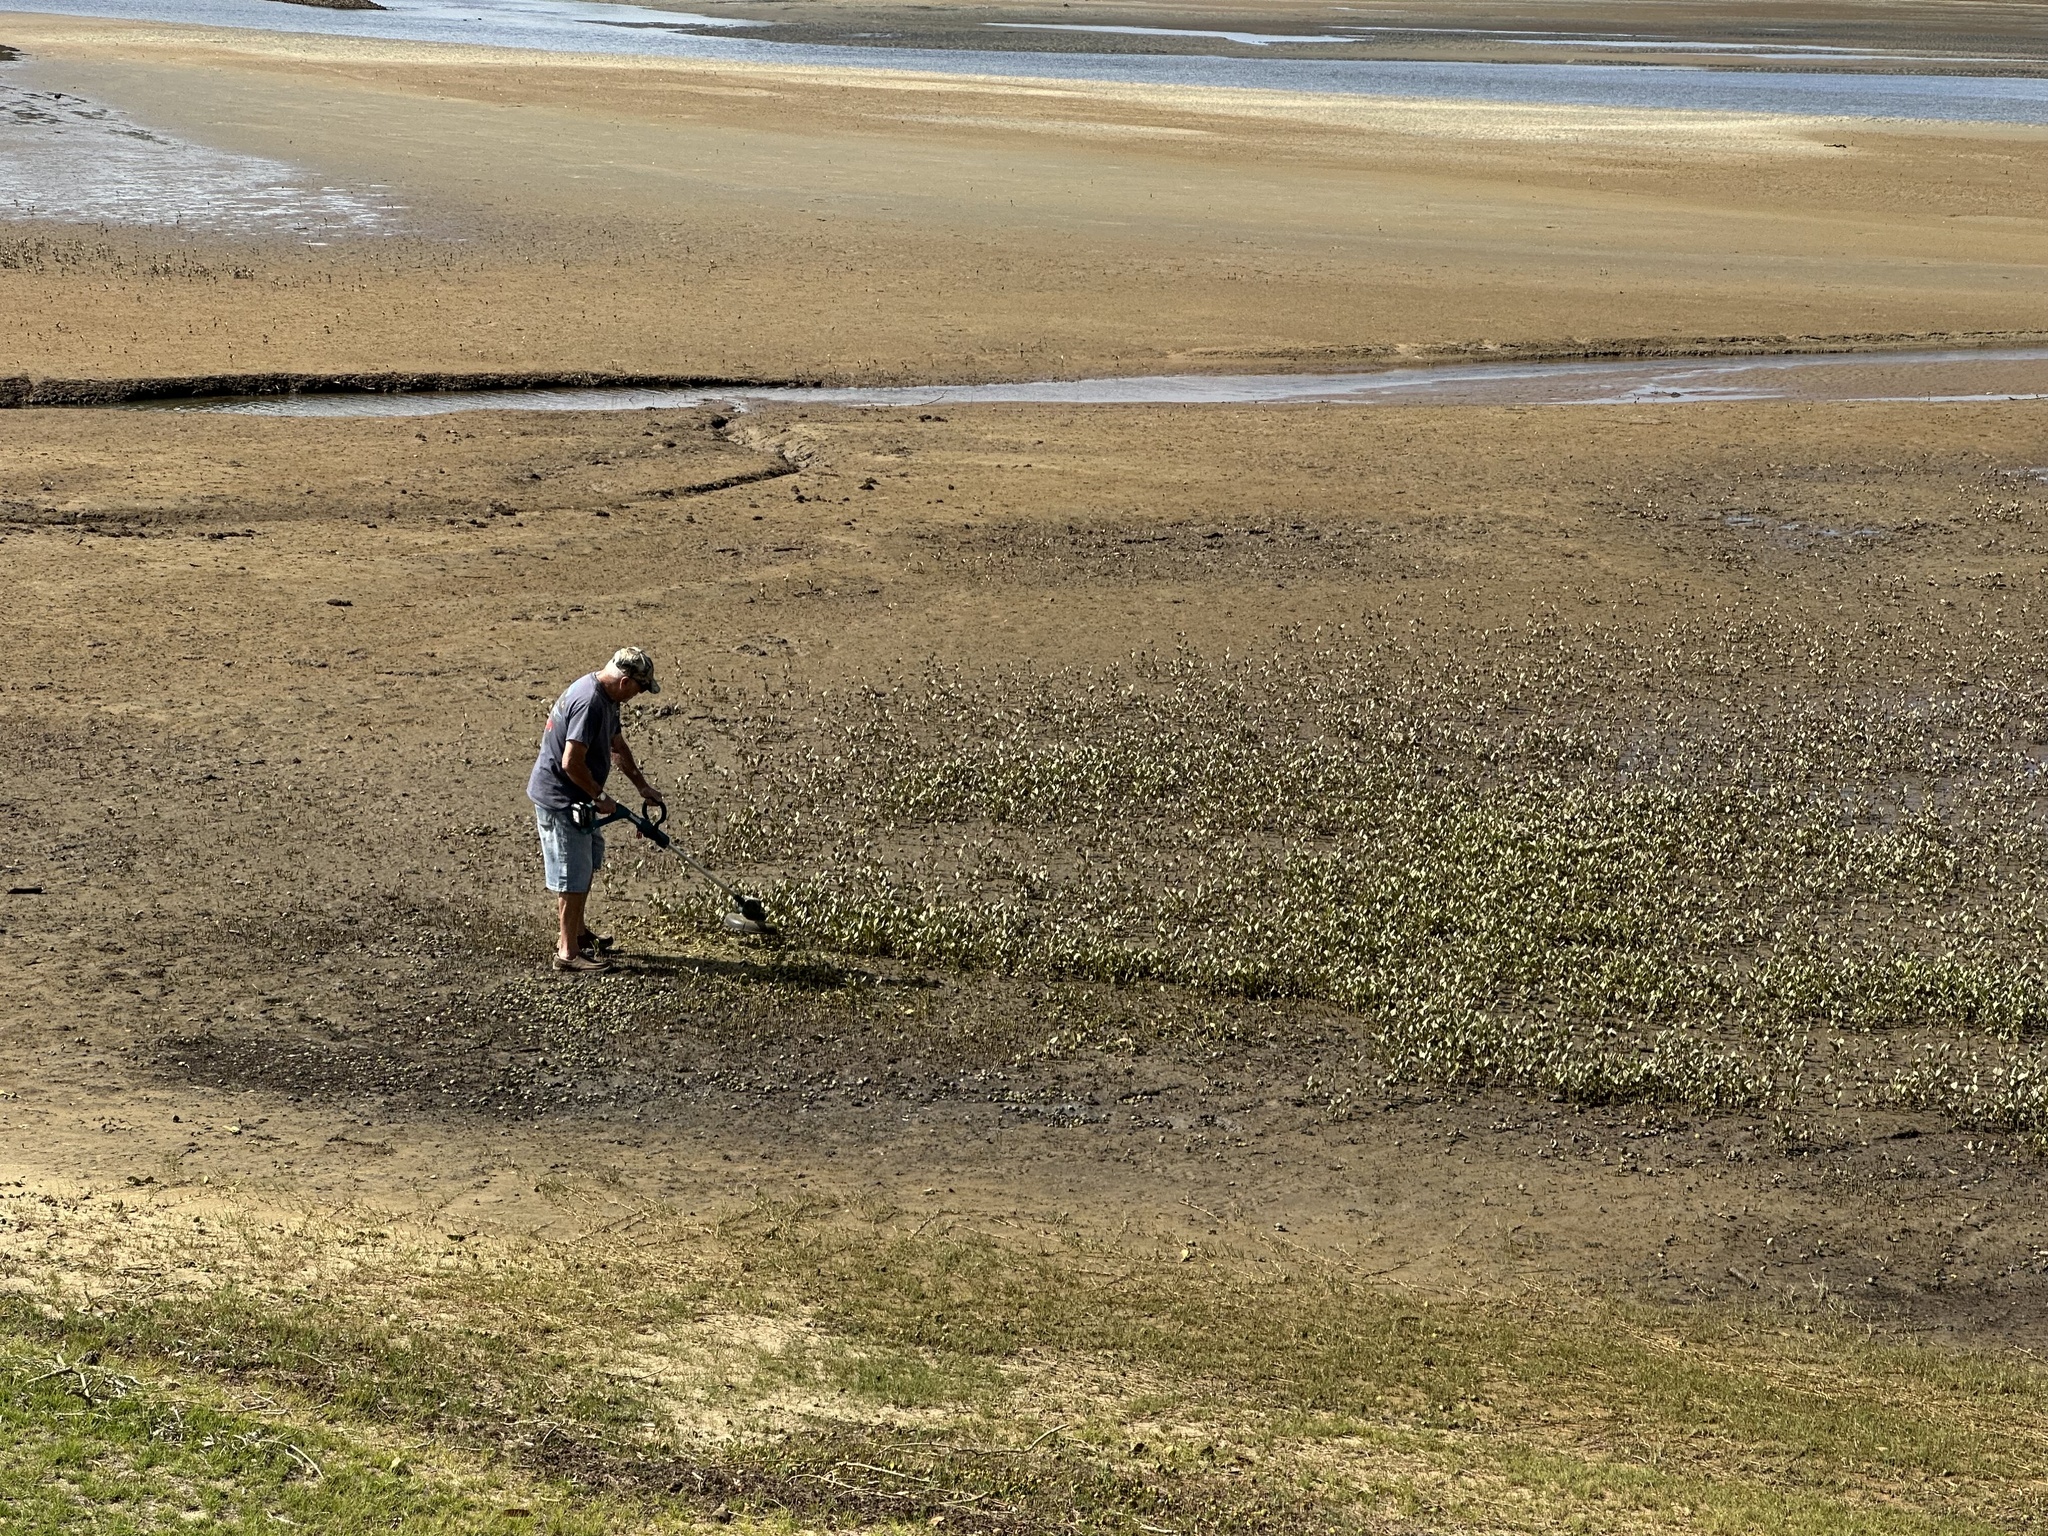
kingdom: Plantae
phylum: Tracheophyta
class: Magnoliopsida
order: Lamiales
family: Acanthaceae
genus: Avicennia
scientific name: Avicennia marina
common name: Gray mangrove
